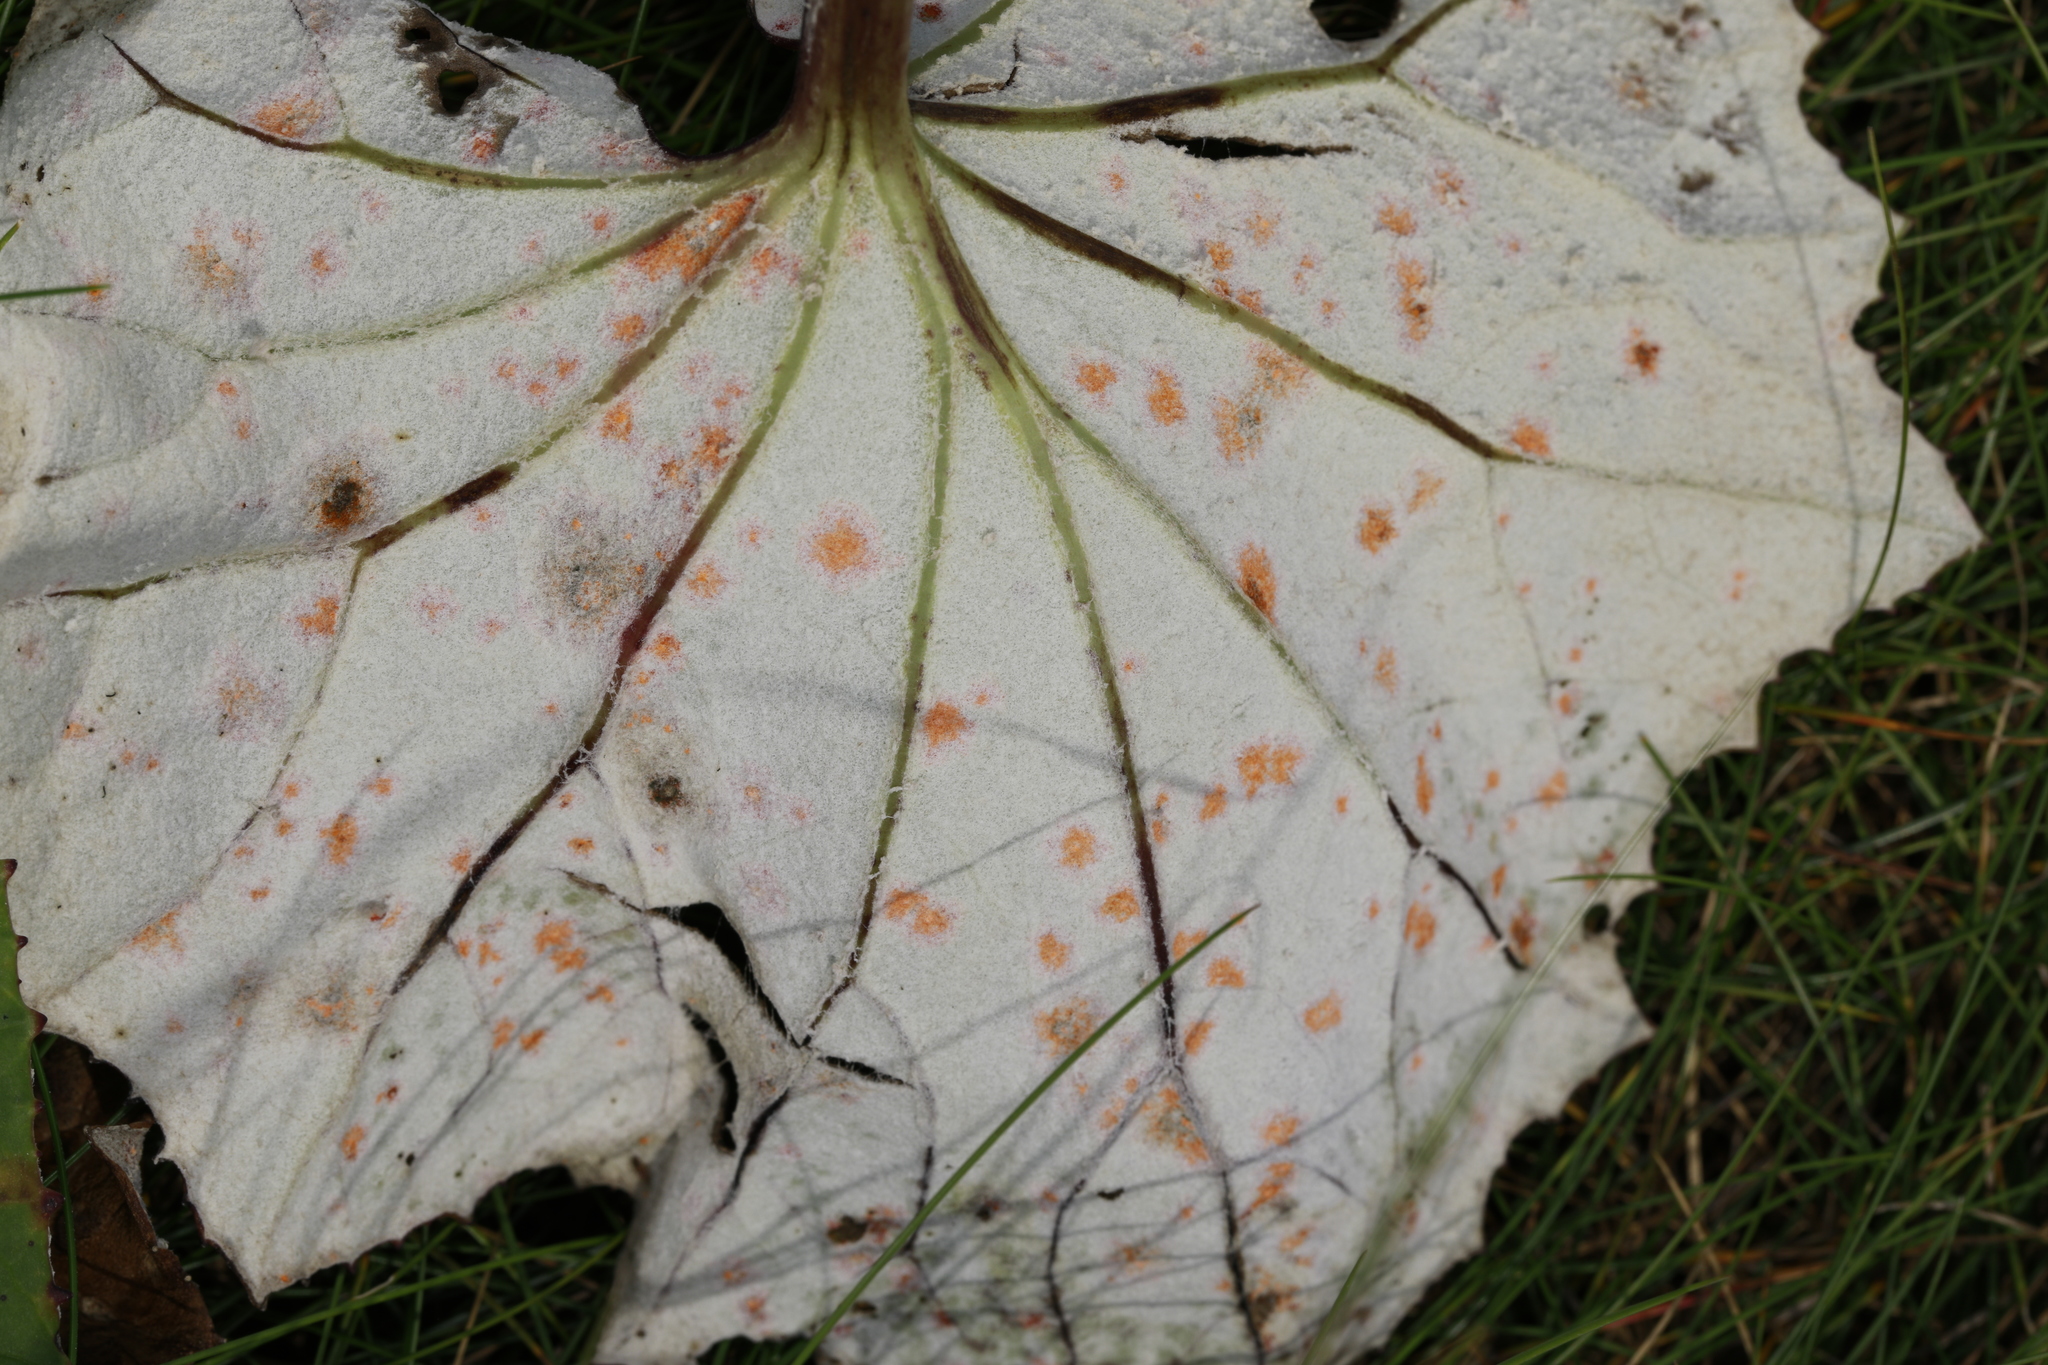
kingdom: Plantae
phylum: Tracheophyta
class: Magnoliopsida
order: Asterales
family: Asteraceae
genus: Tussilago
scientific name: Tussilago farfara
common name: Coltsfoot
